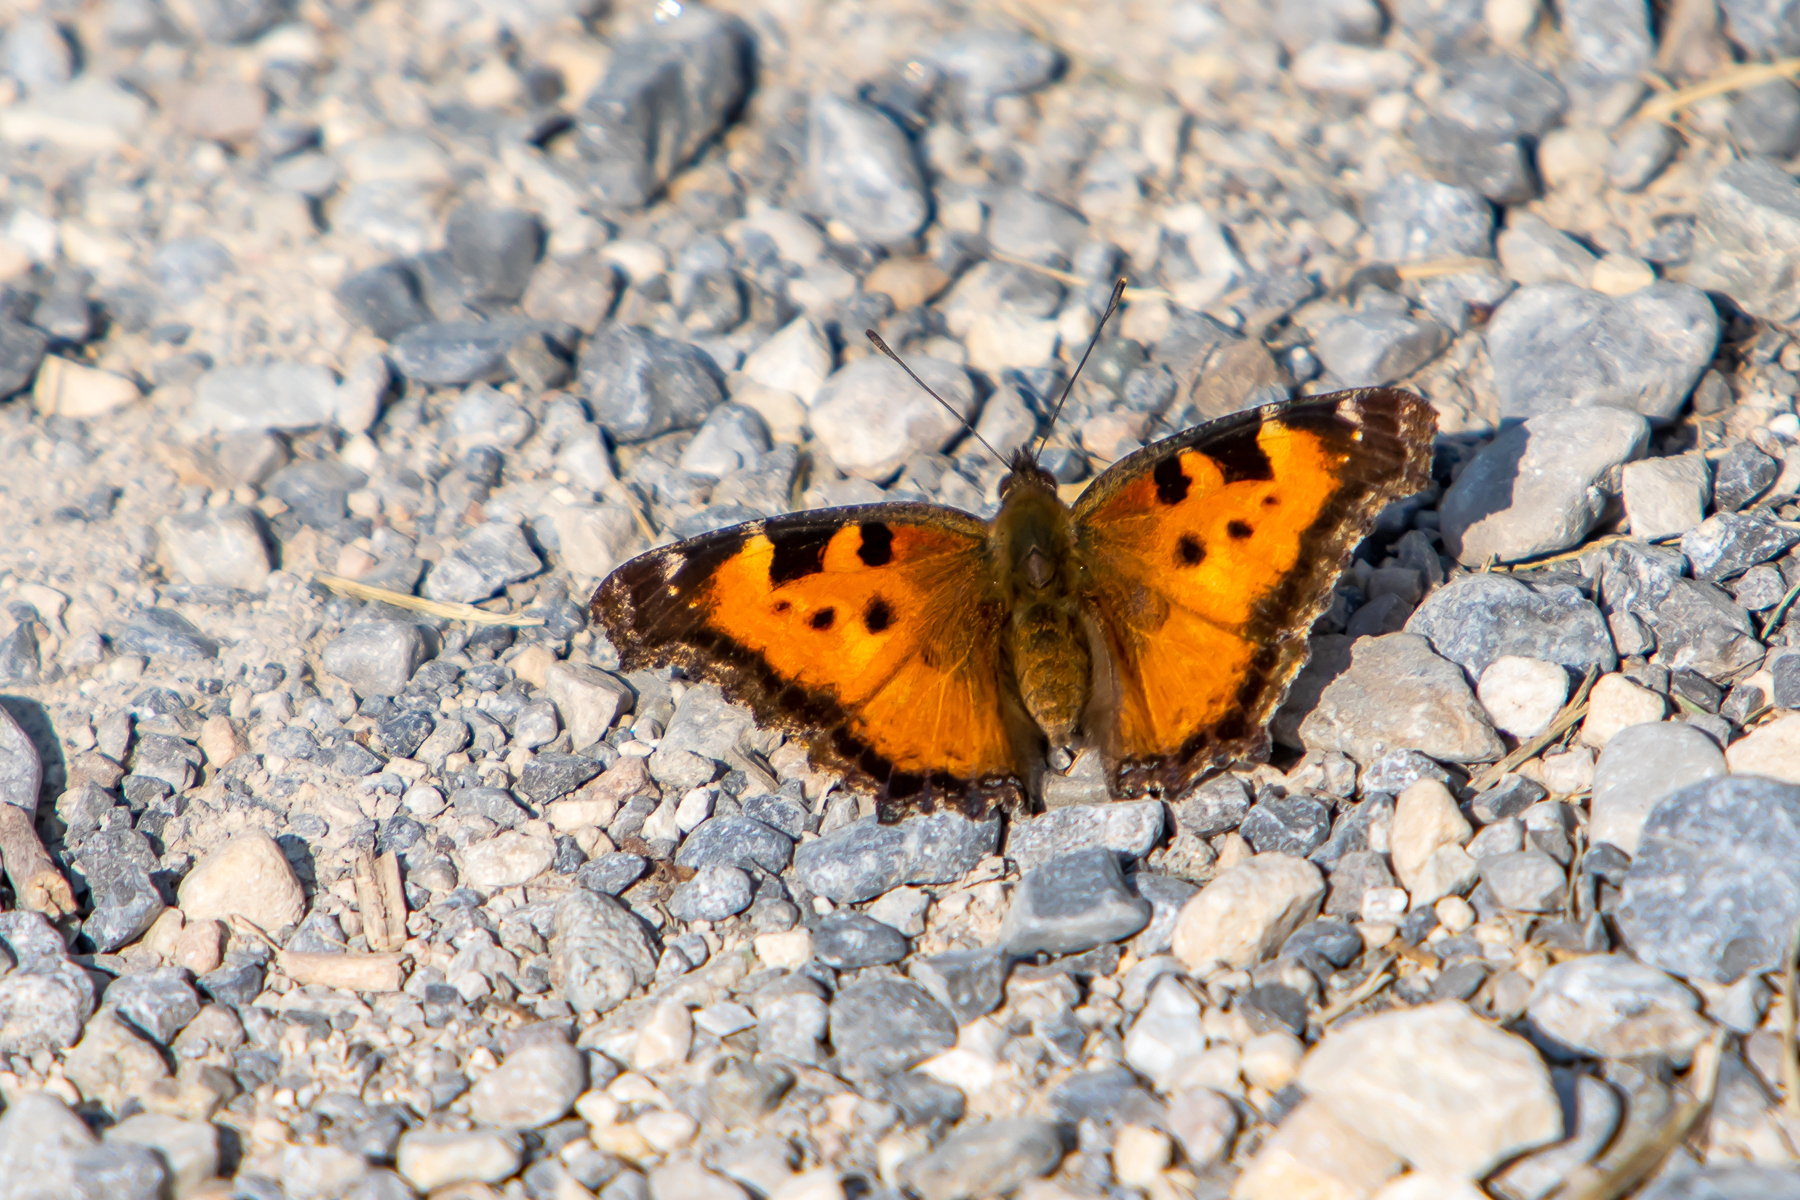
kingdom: Animalia
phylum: Arthropoda
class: Insecta
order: Lepidoptera
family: Nymphalidae
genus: Nymphalis
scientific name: Nymphalis californica
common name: California tortoiseshell
